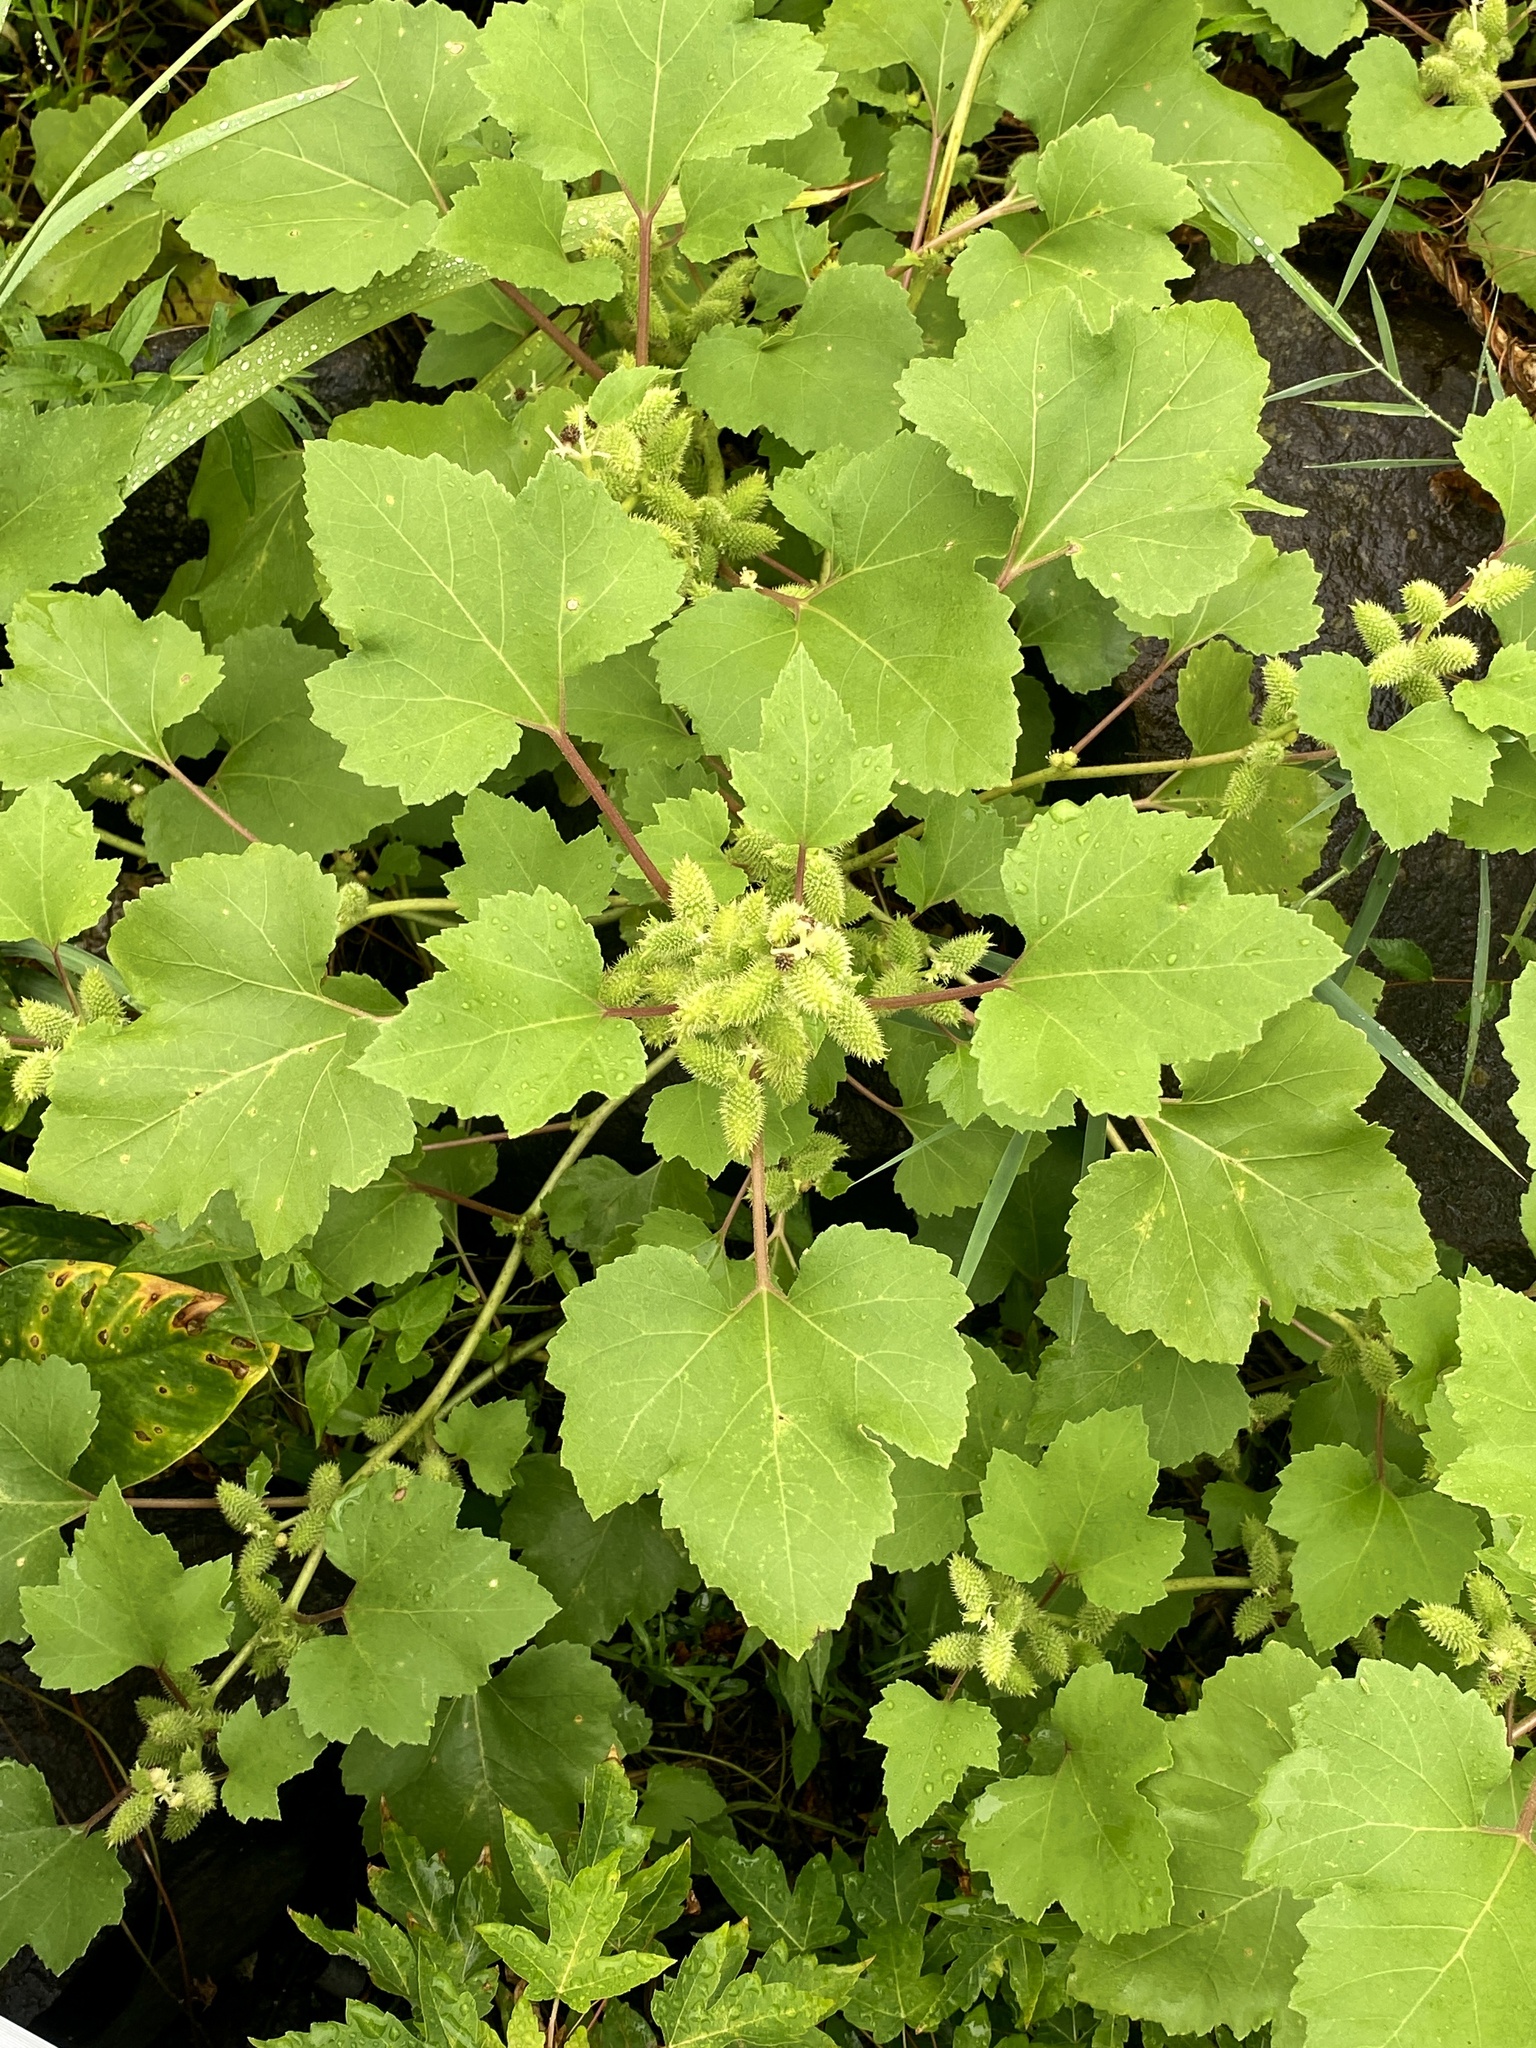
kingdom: Plantae
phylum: Tracheophyta
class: Magnoliopsida
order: Asterales
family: Asteraceae
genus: Xanthium
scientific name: Xanthium strumarium
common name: Rough cocklebur
